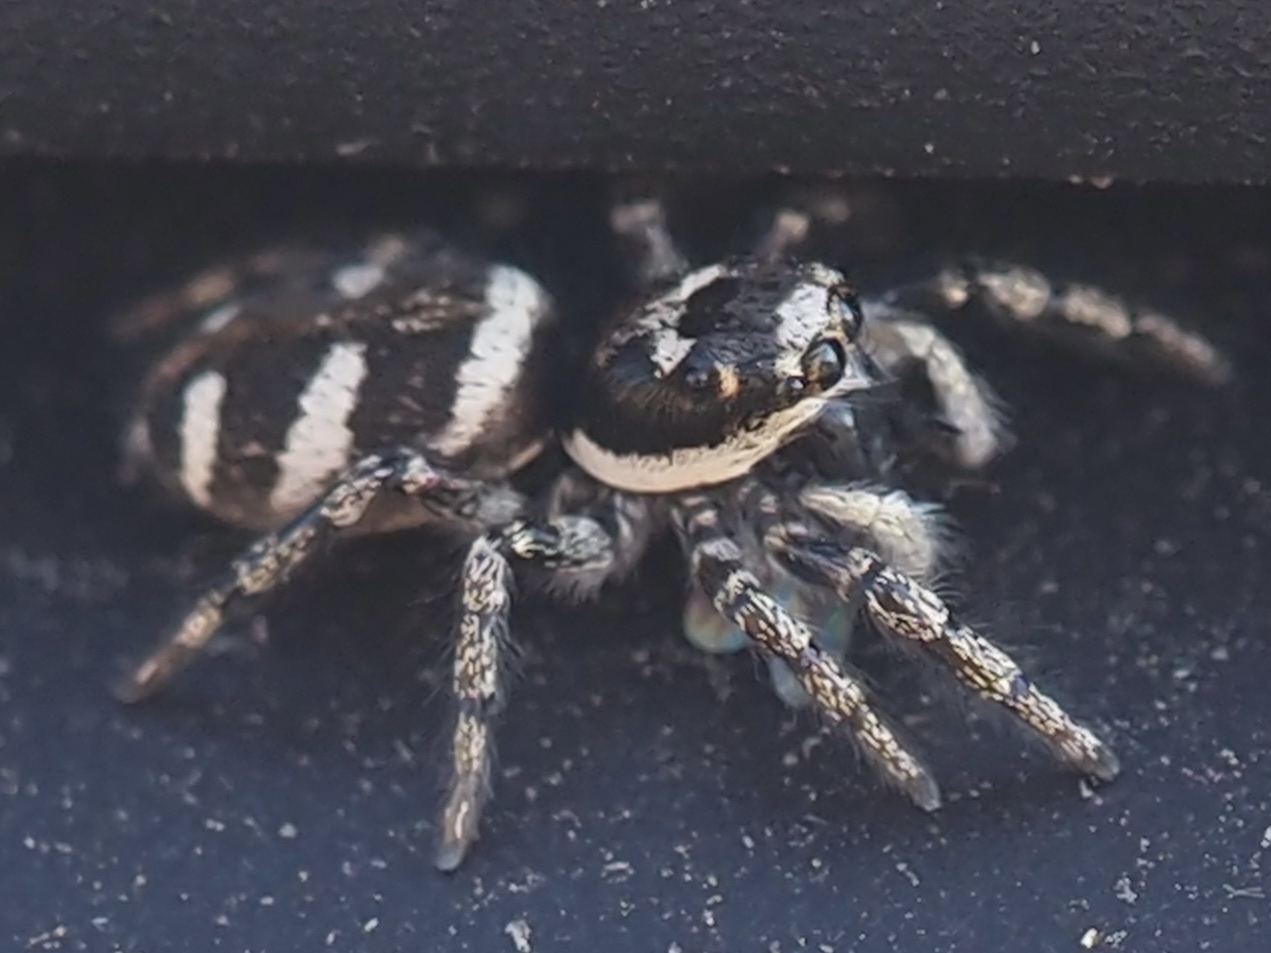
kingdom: Animalia
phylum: Arthropoda
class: Arachnida
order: Araneae
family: Salticidae
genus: Salticus
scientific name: Salticus scenicus
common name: Zebra jumper
